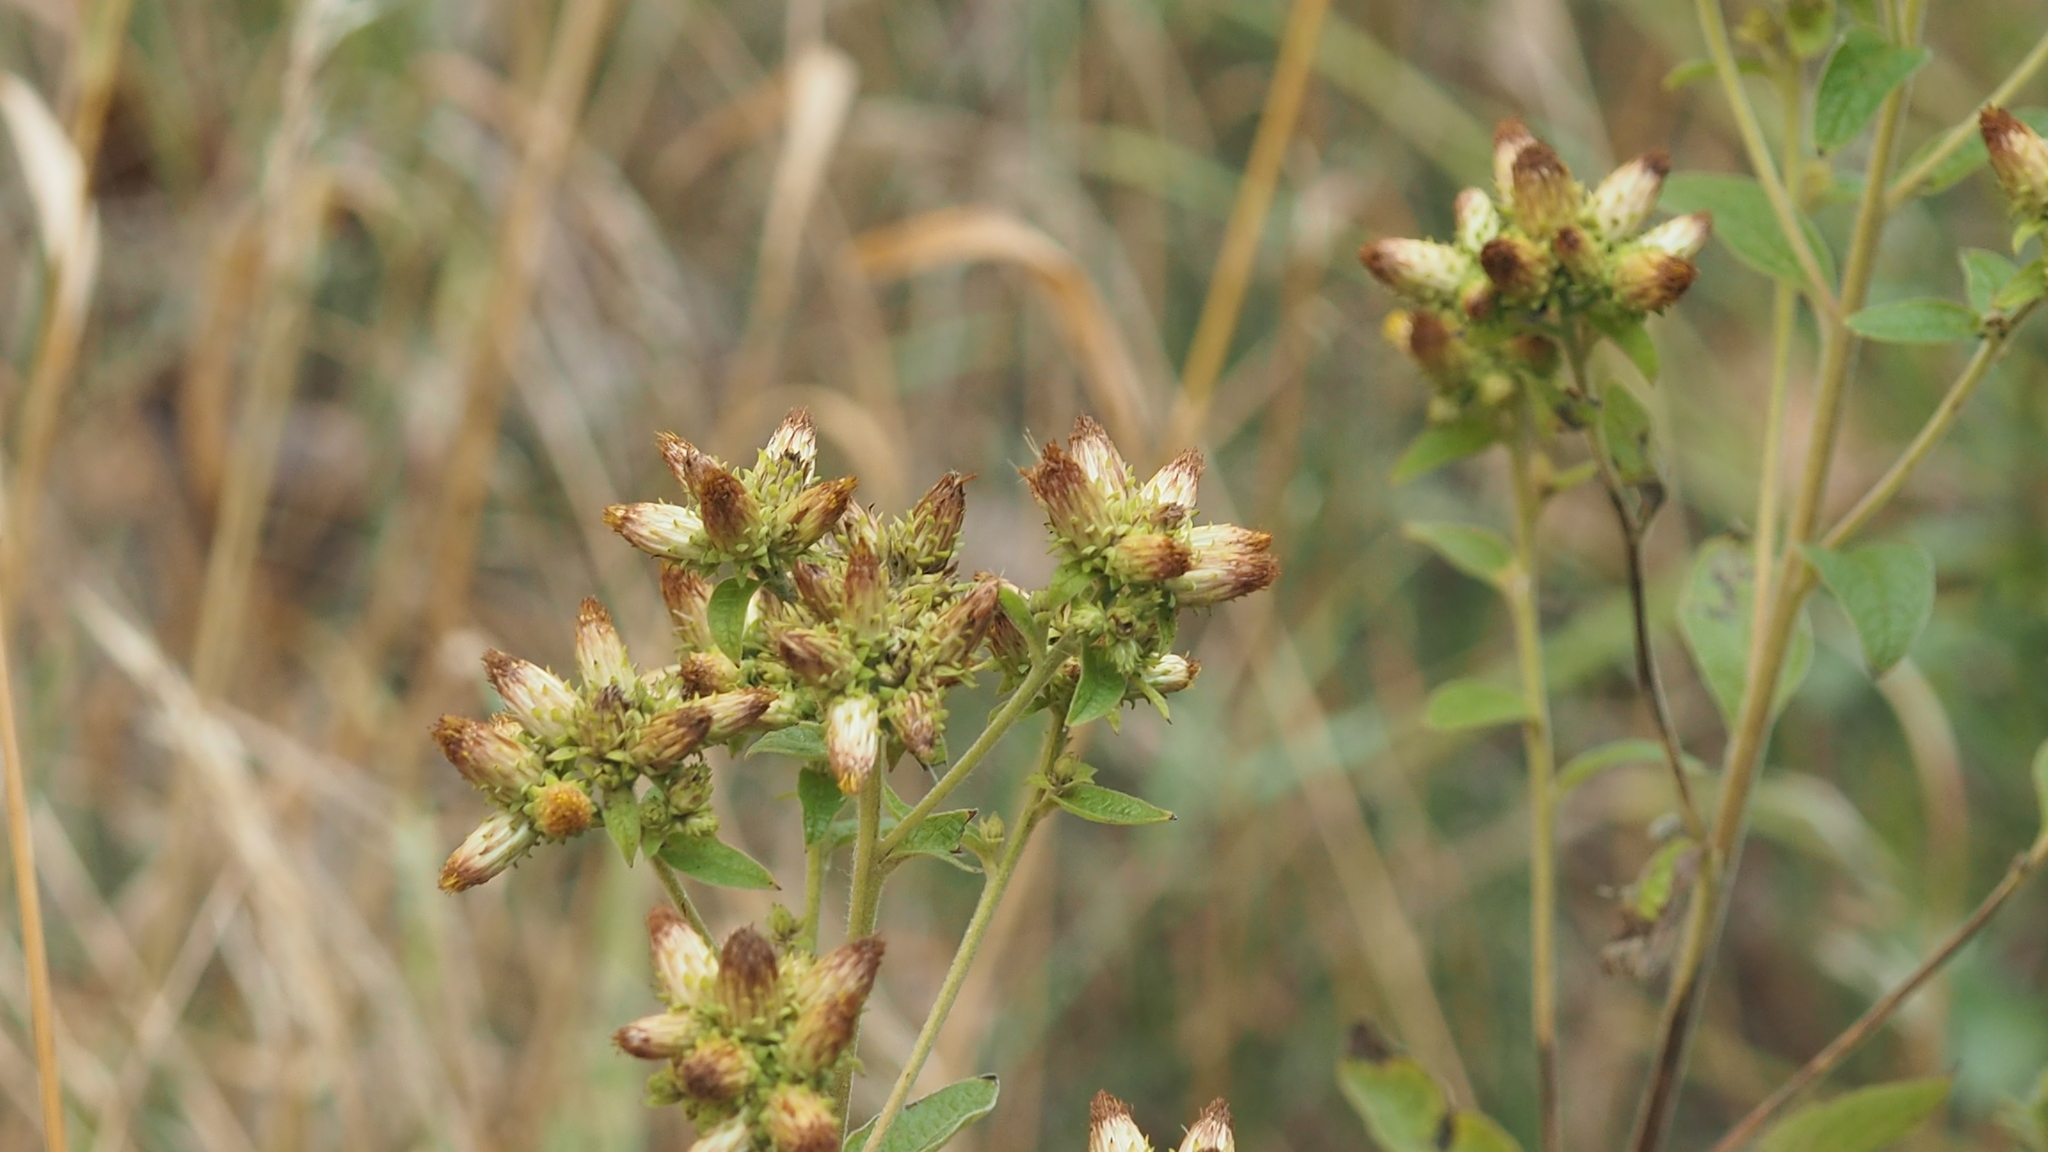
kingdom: Plantae
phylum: Tracheophyta
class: Magnoliopsida
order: Asterales
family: Asteraceae
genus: Pentanema
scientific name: Pentanema squarrosum
